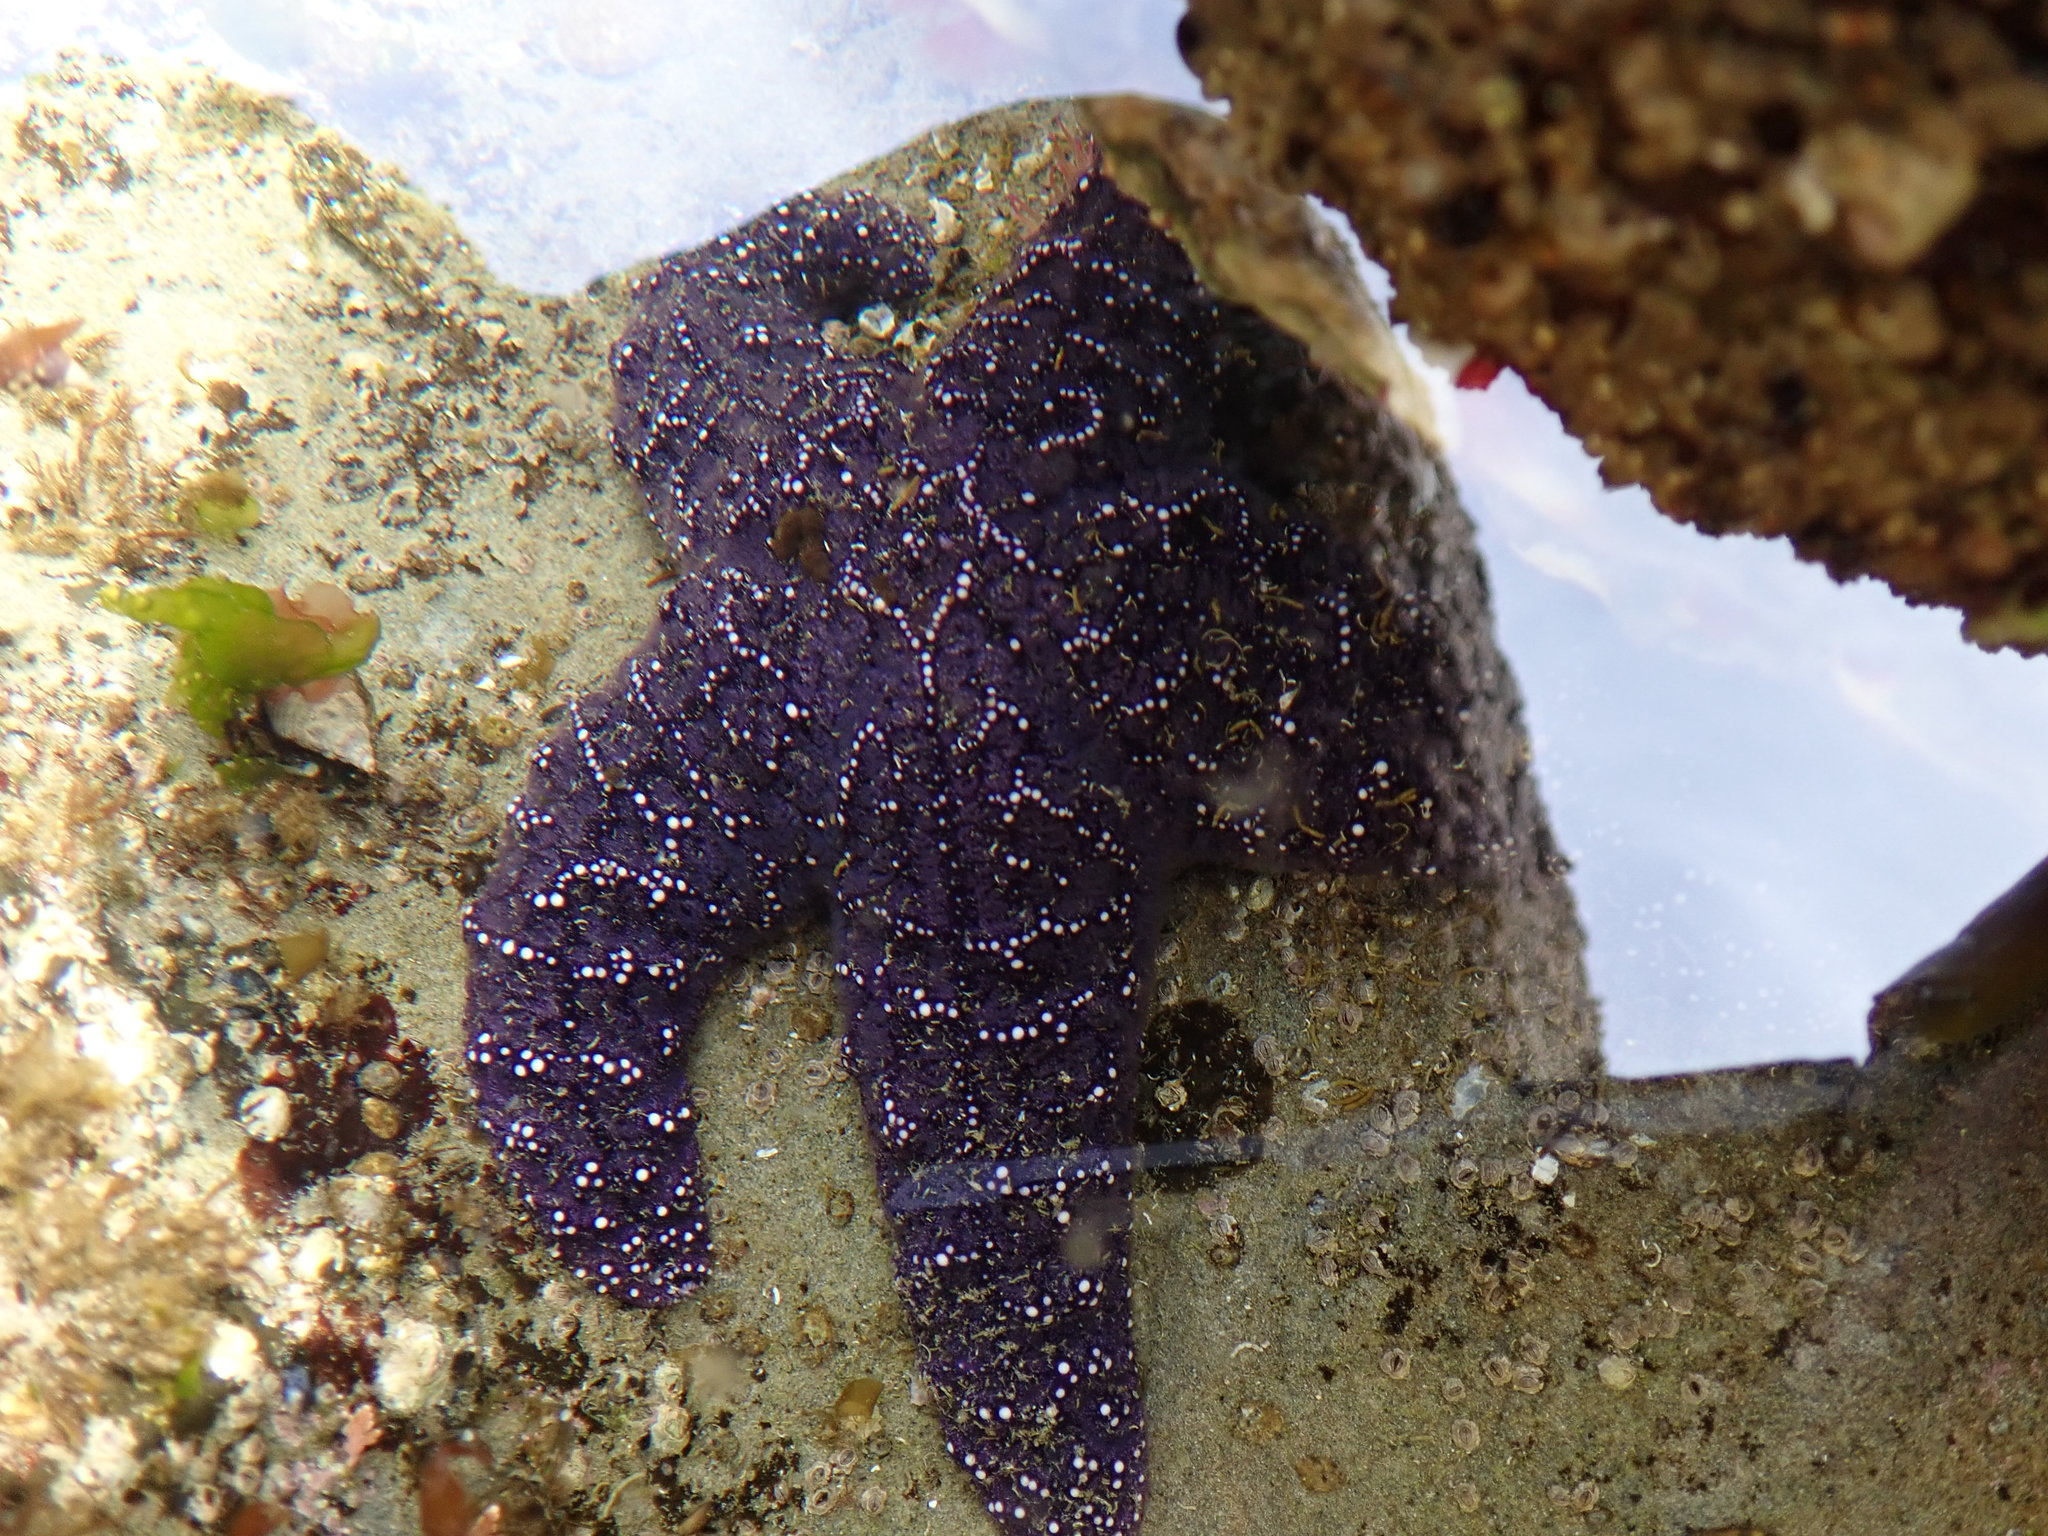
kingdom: Animalia
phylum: Echinodermata
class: Asteroidea
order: Forcipulatida
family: Asteriidae
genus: Pisaster
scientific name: Pisaster ochraceus
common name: Ochre stars
